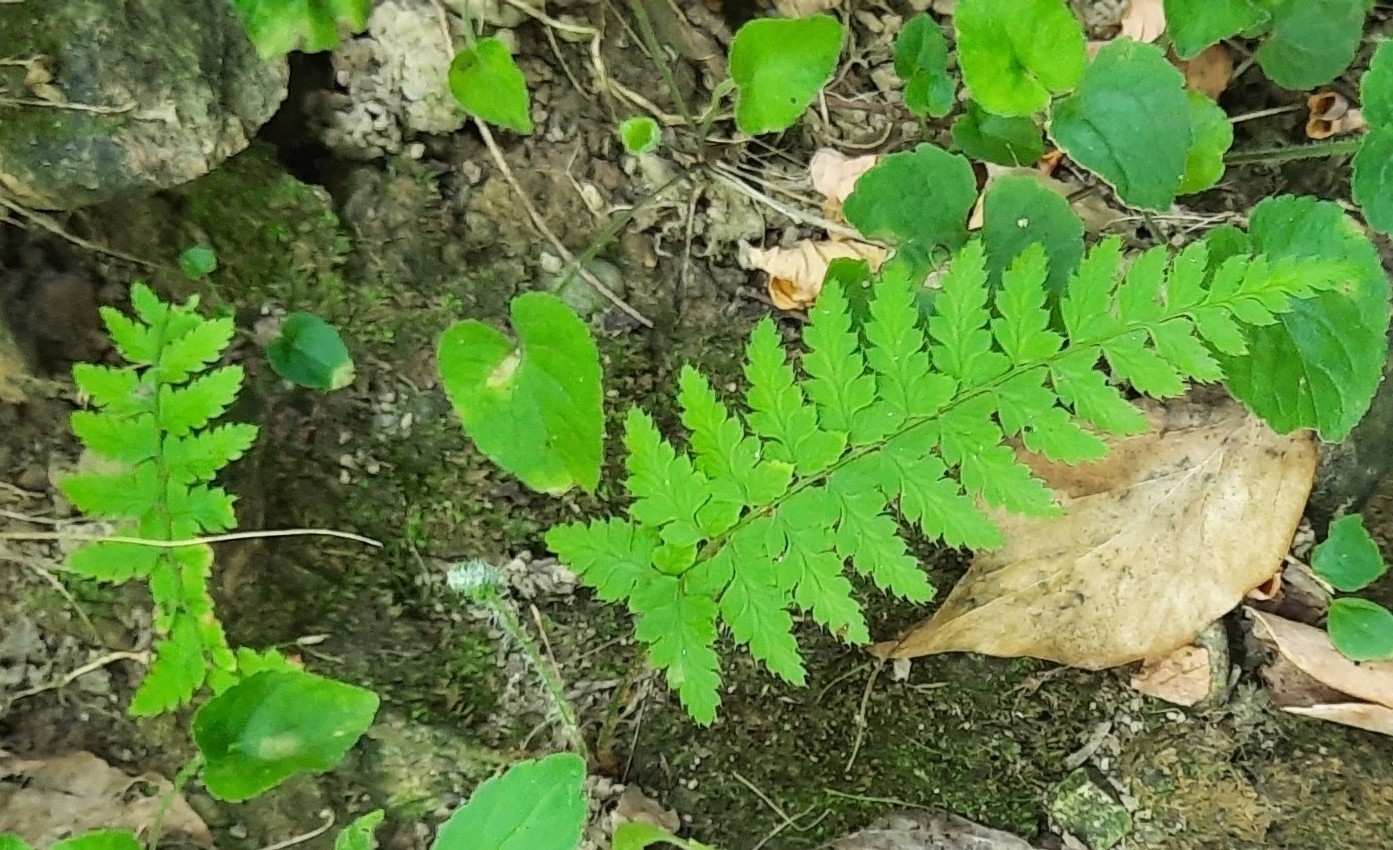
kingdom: Plantae
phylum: Tracheophyta
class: Polypodiopsida
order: Polypodiales
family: Dryopteridaceae
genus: Polystichum
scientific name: Polystichum setiferum
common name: Soft shield-fern
